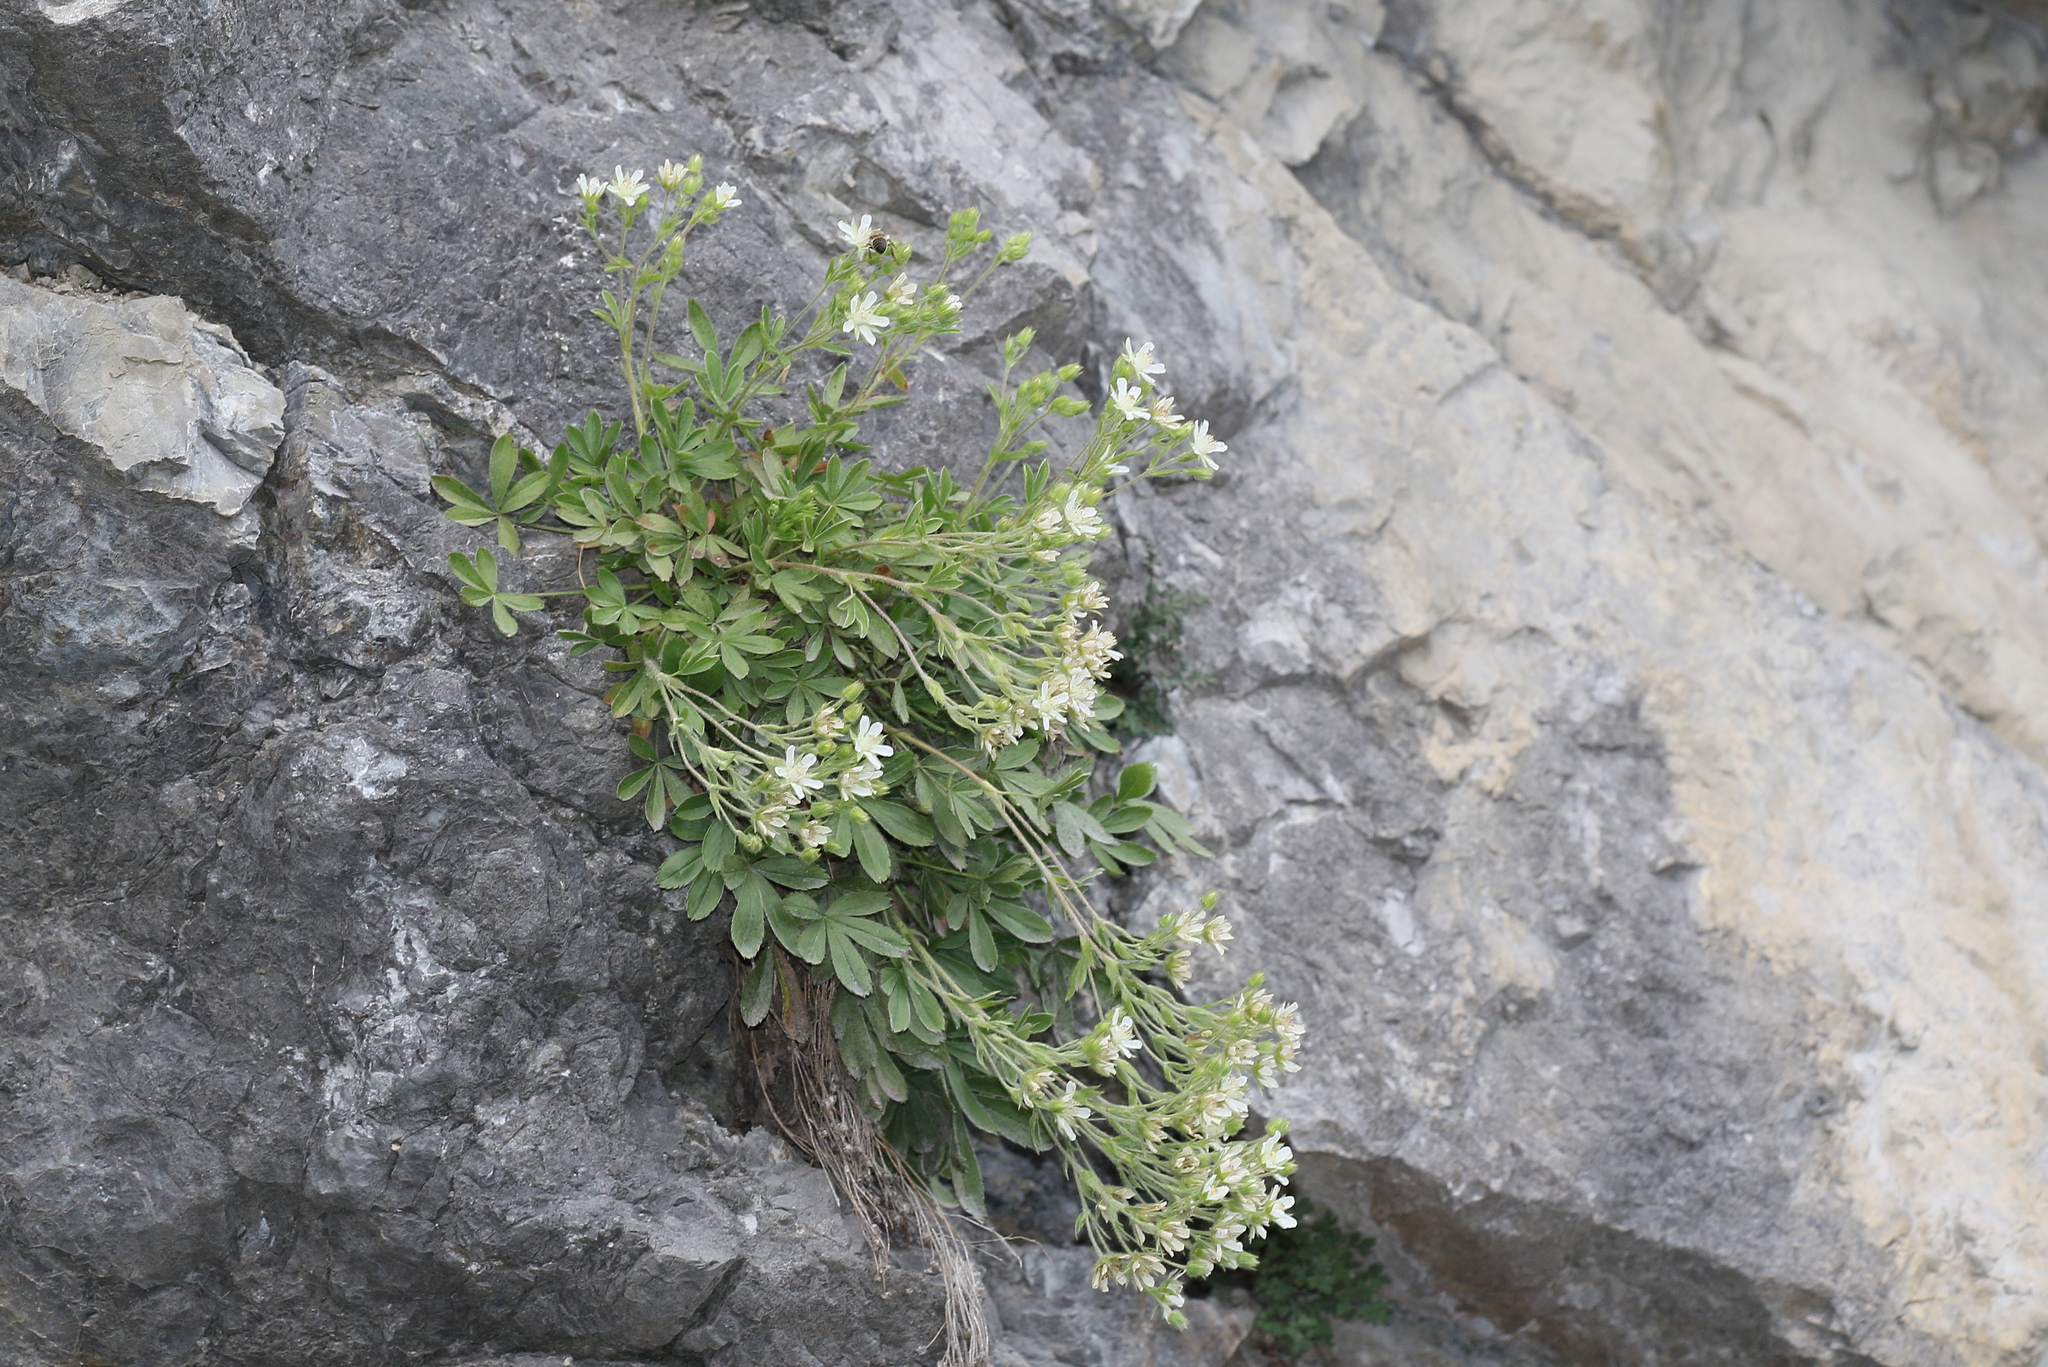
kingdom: Plantae
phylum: Tracheophyta
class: Magnoliopsida
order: Rosales
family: Rosaceae
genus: Potentilla
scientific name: Potentilla caulescens
